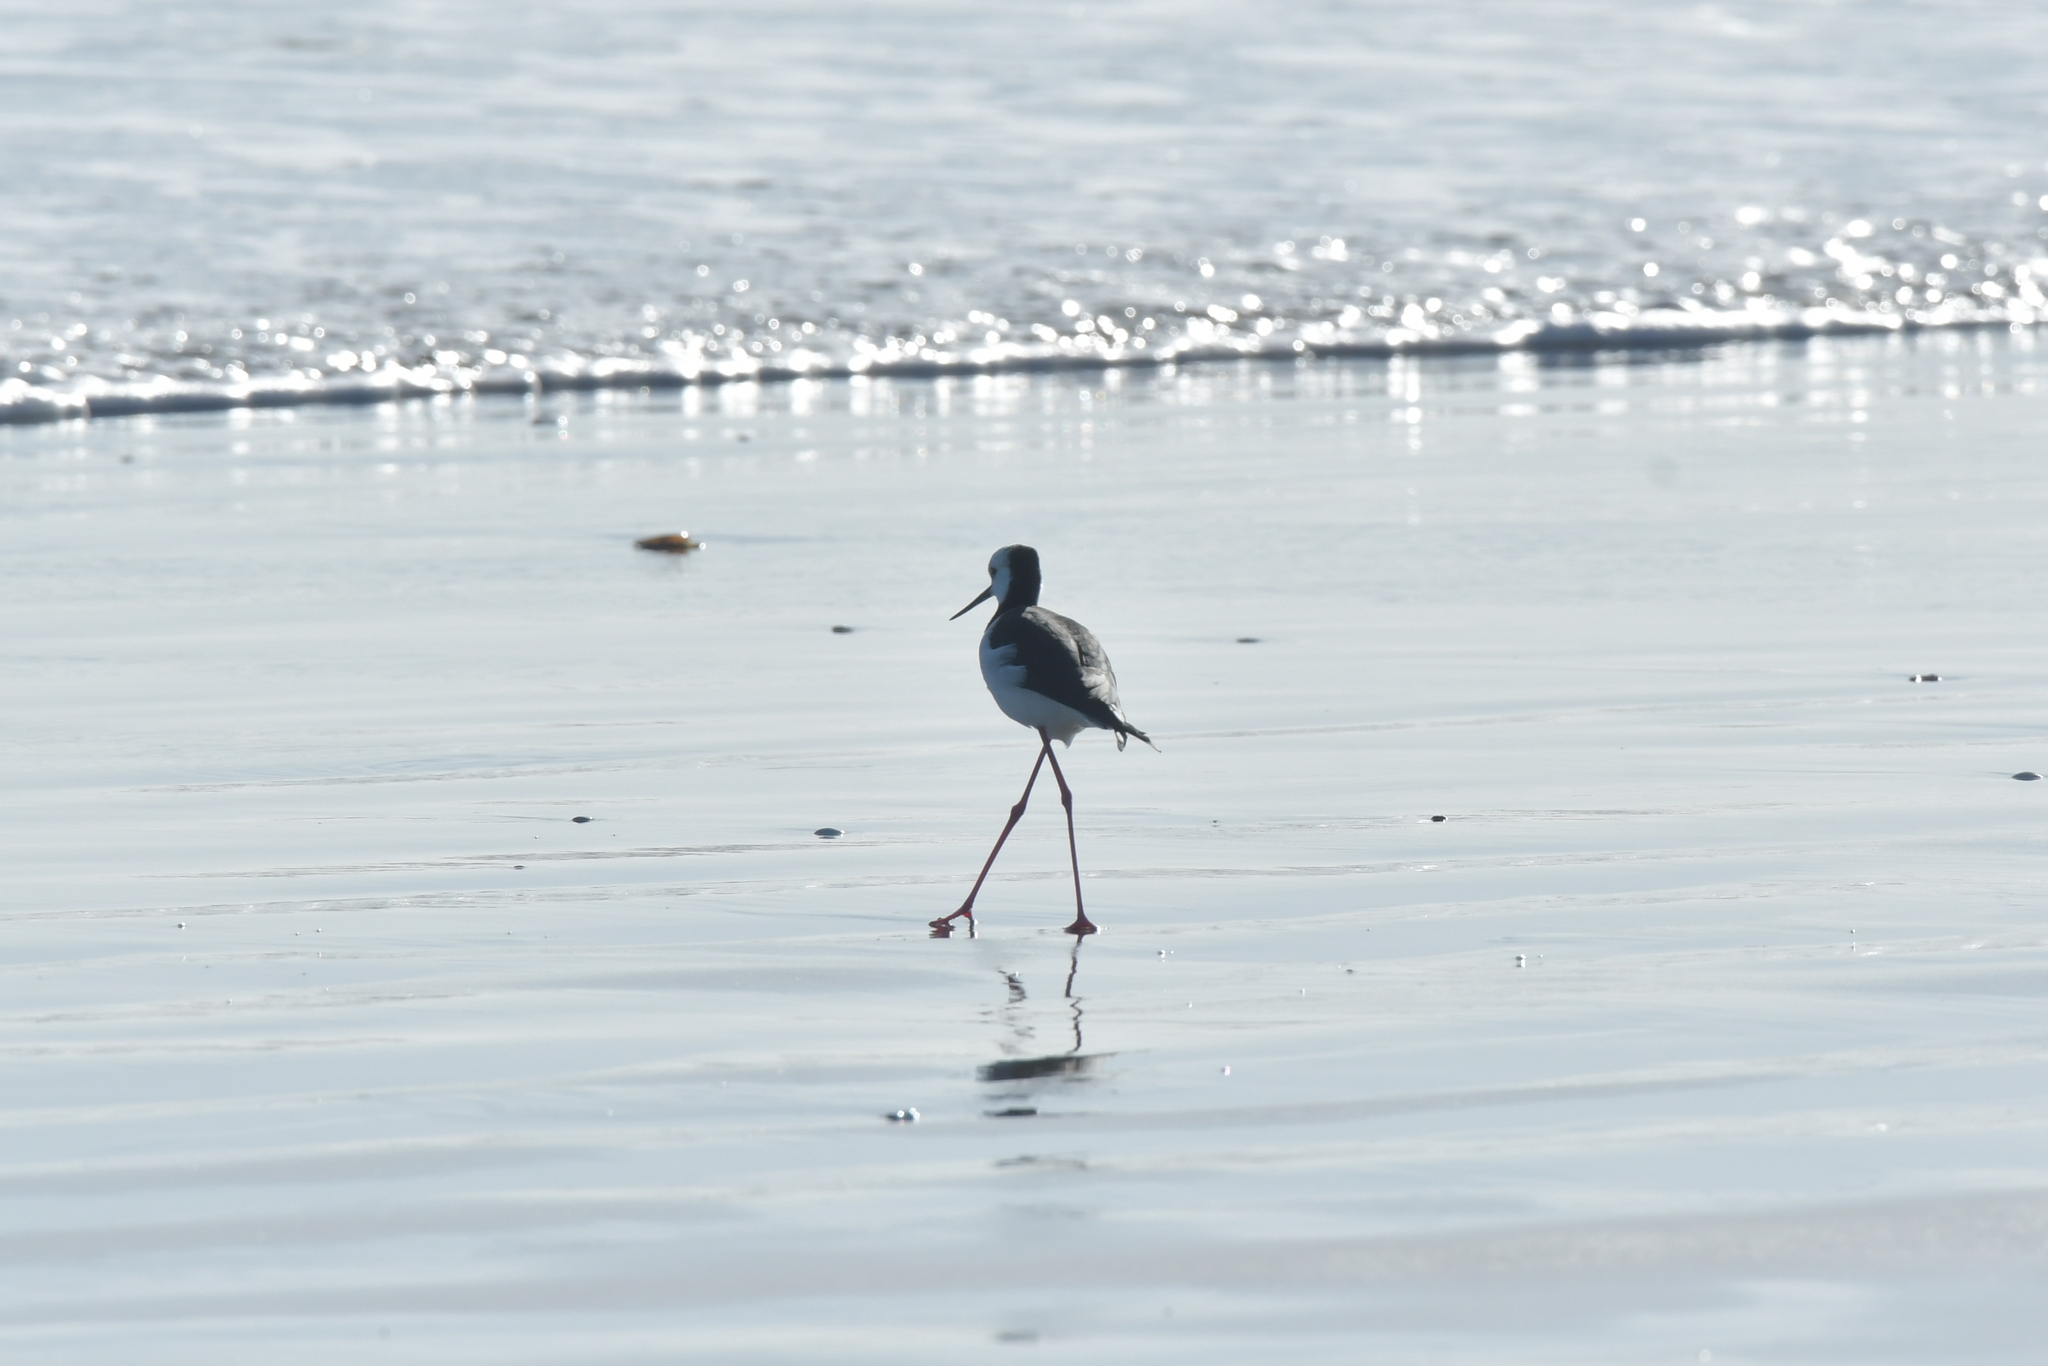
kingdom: Animalia
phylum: Chordata
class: Aves
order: Charadriiformes
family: Recurvirostridae
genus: Himantopus
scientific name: Himantopus leucocephalus
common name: White-headed stilt
